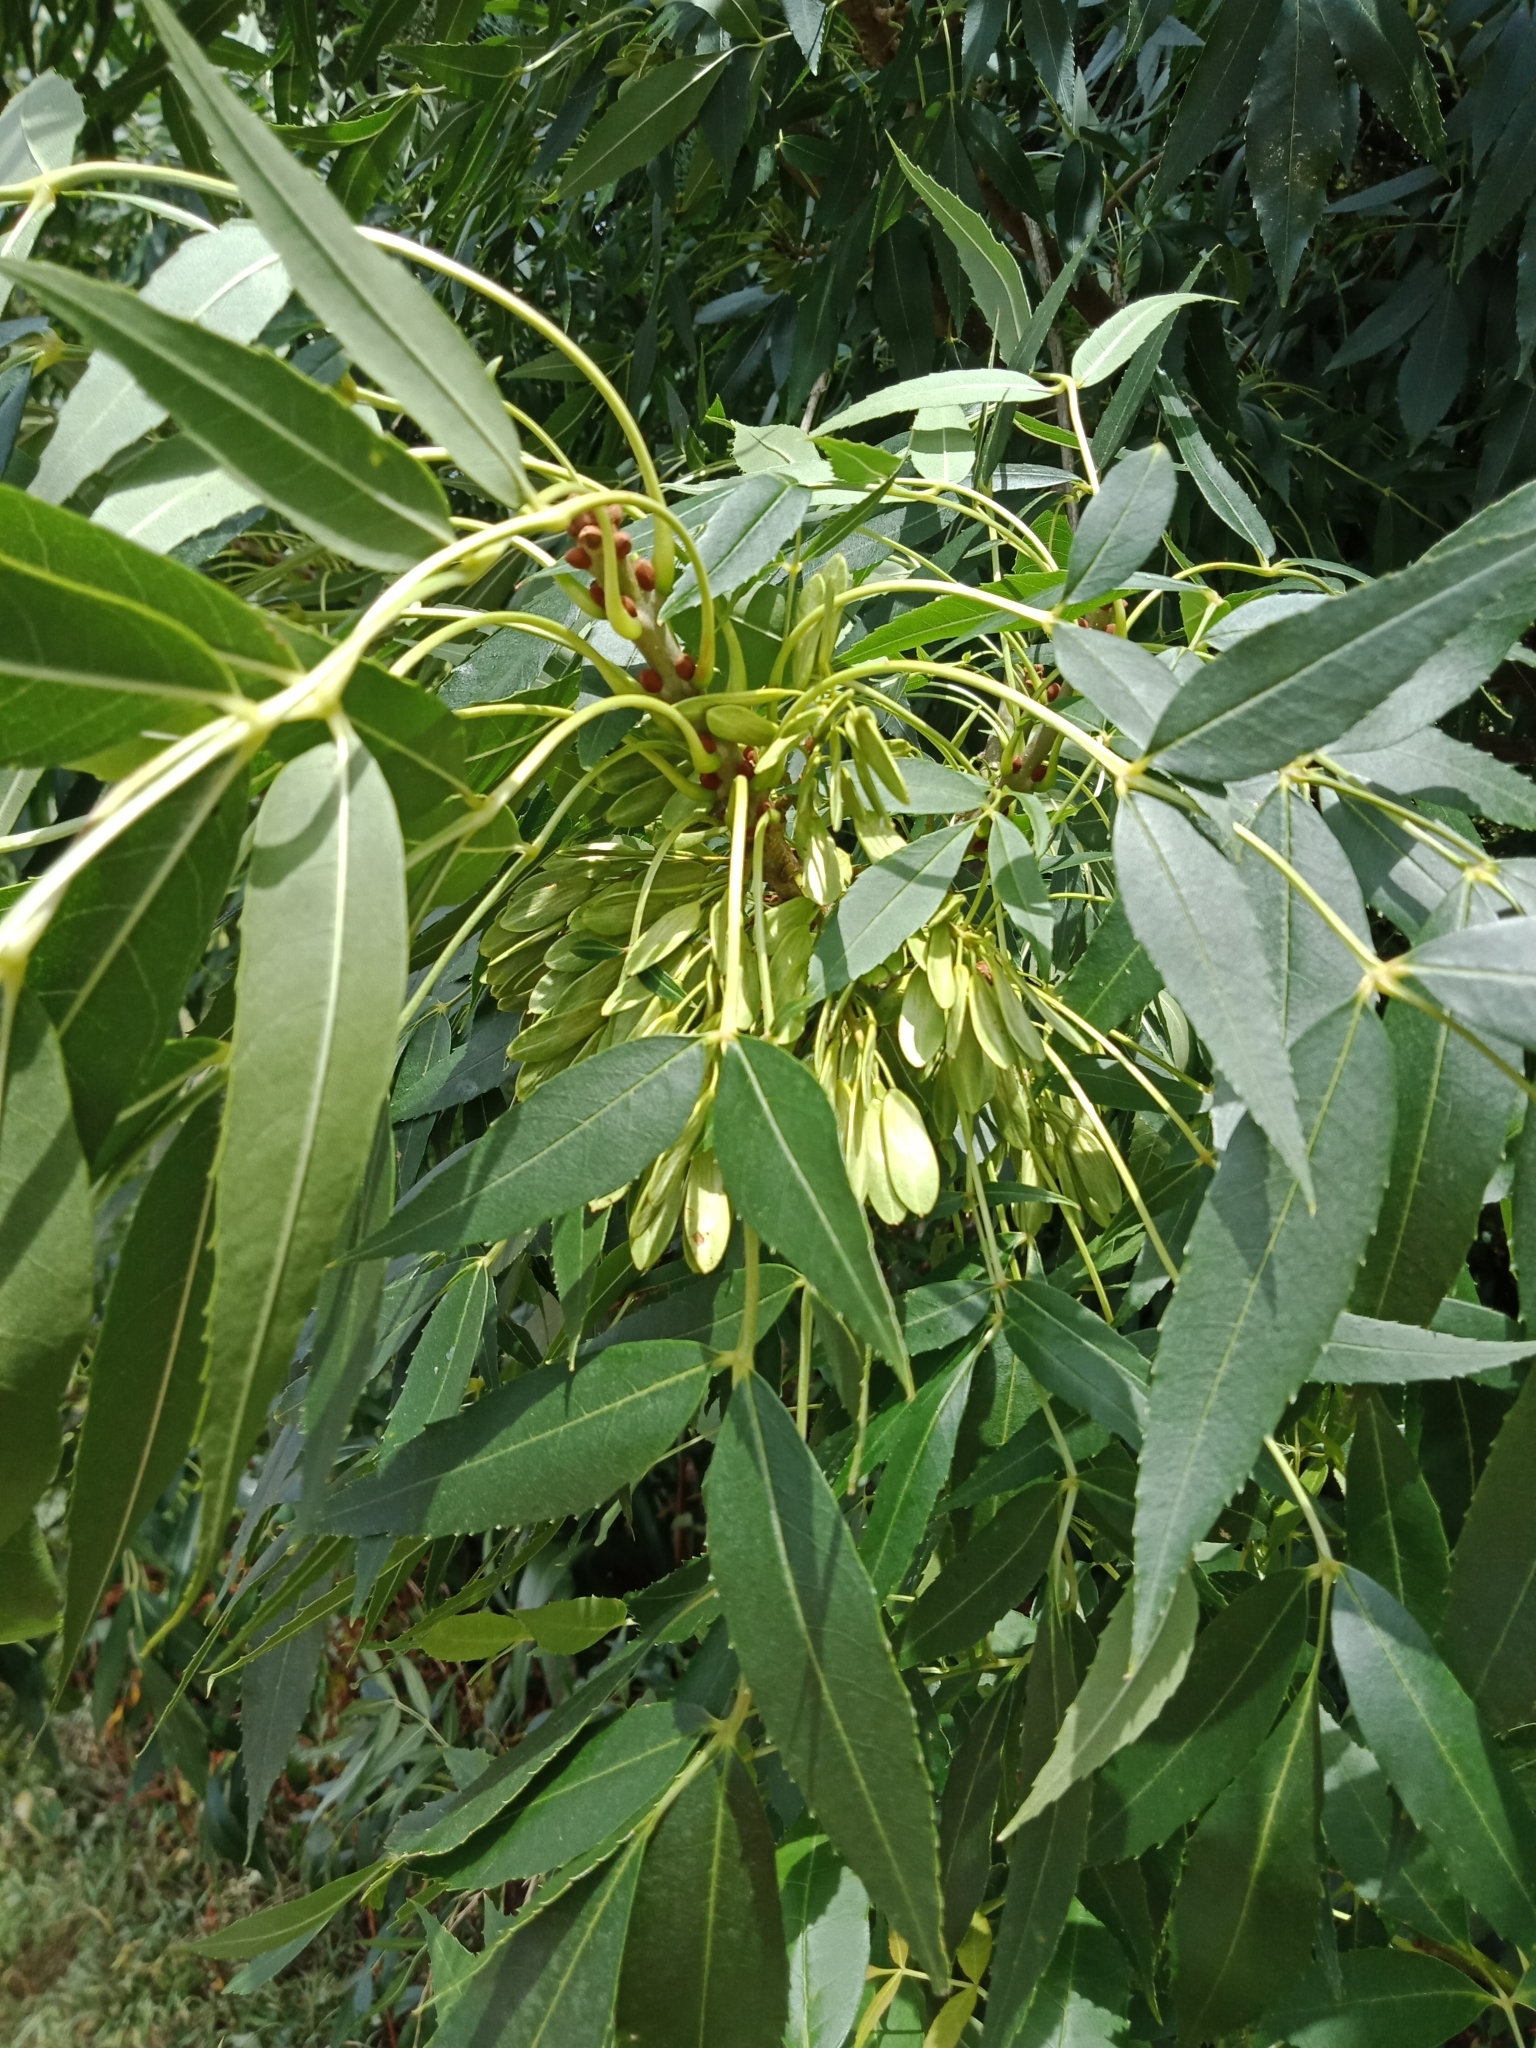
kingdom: Plantae
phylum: Tracheophyta
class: Magnoliopsida
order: Lamiales
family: Oleaceae
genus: Fraxinus
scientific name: Fraxinus angustifolia
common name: Narrow-leafed ash
